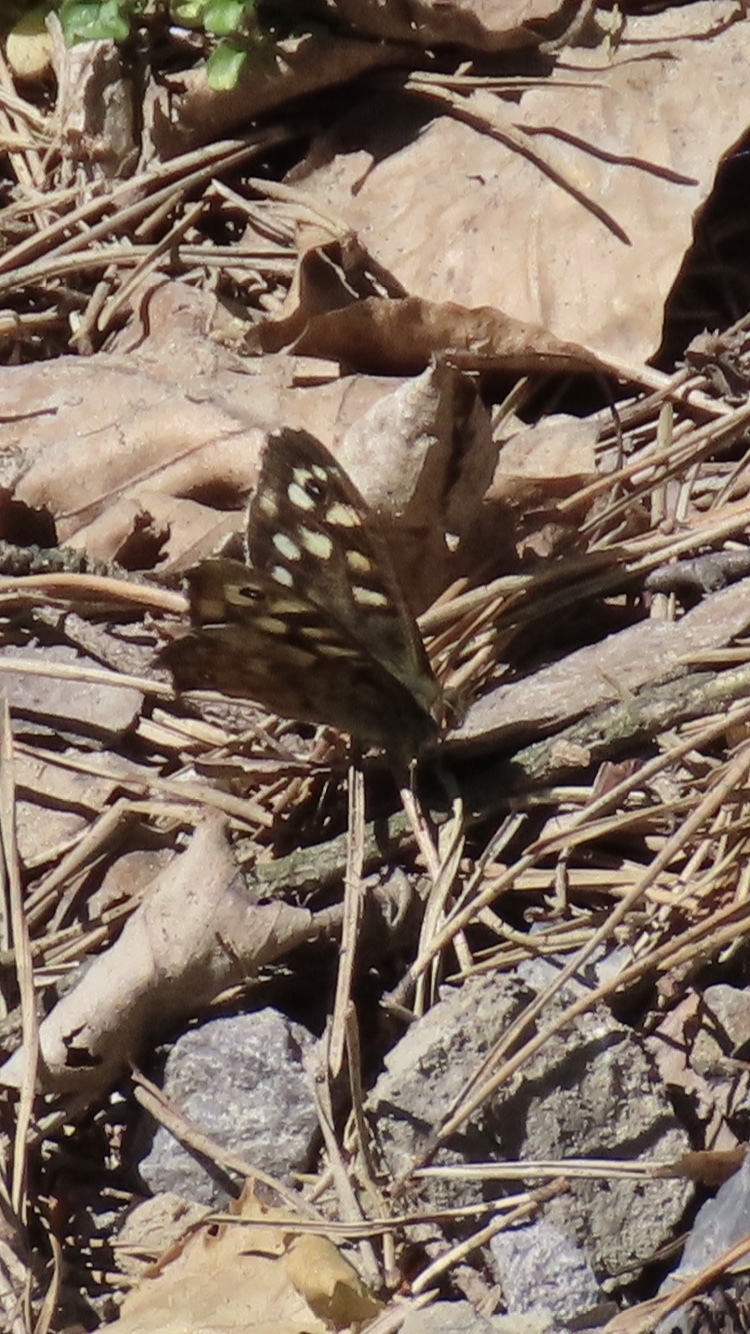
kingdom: Animalia
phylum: Arthropoda
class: Insecta
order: Lepidoptera
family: Nymphalidae
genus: Pararge
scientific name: Pararge aegeria
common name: Speckled wood
